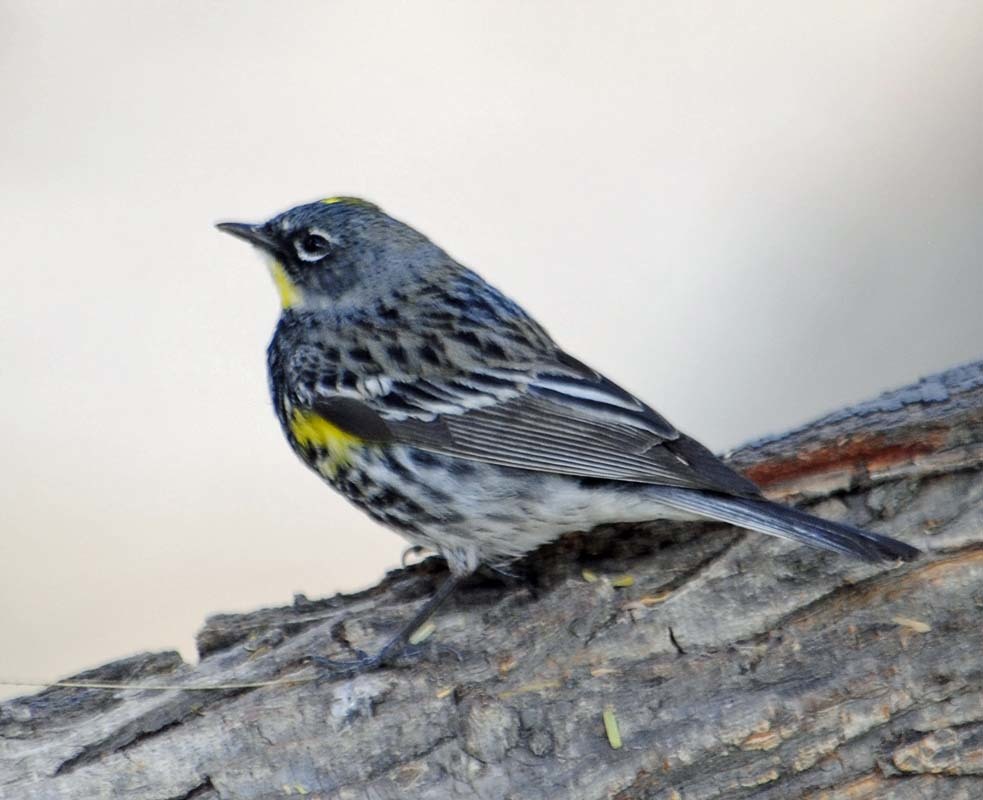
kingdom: Animalia
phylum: Chordata
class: Aves
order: Passeriformes
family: Parulidae
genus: Setophaga
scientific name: Setophaga auduboni
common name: Audubon's warbler
